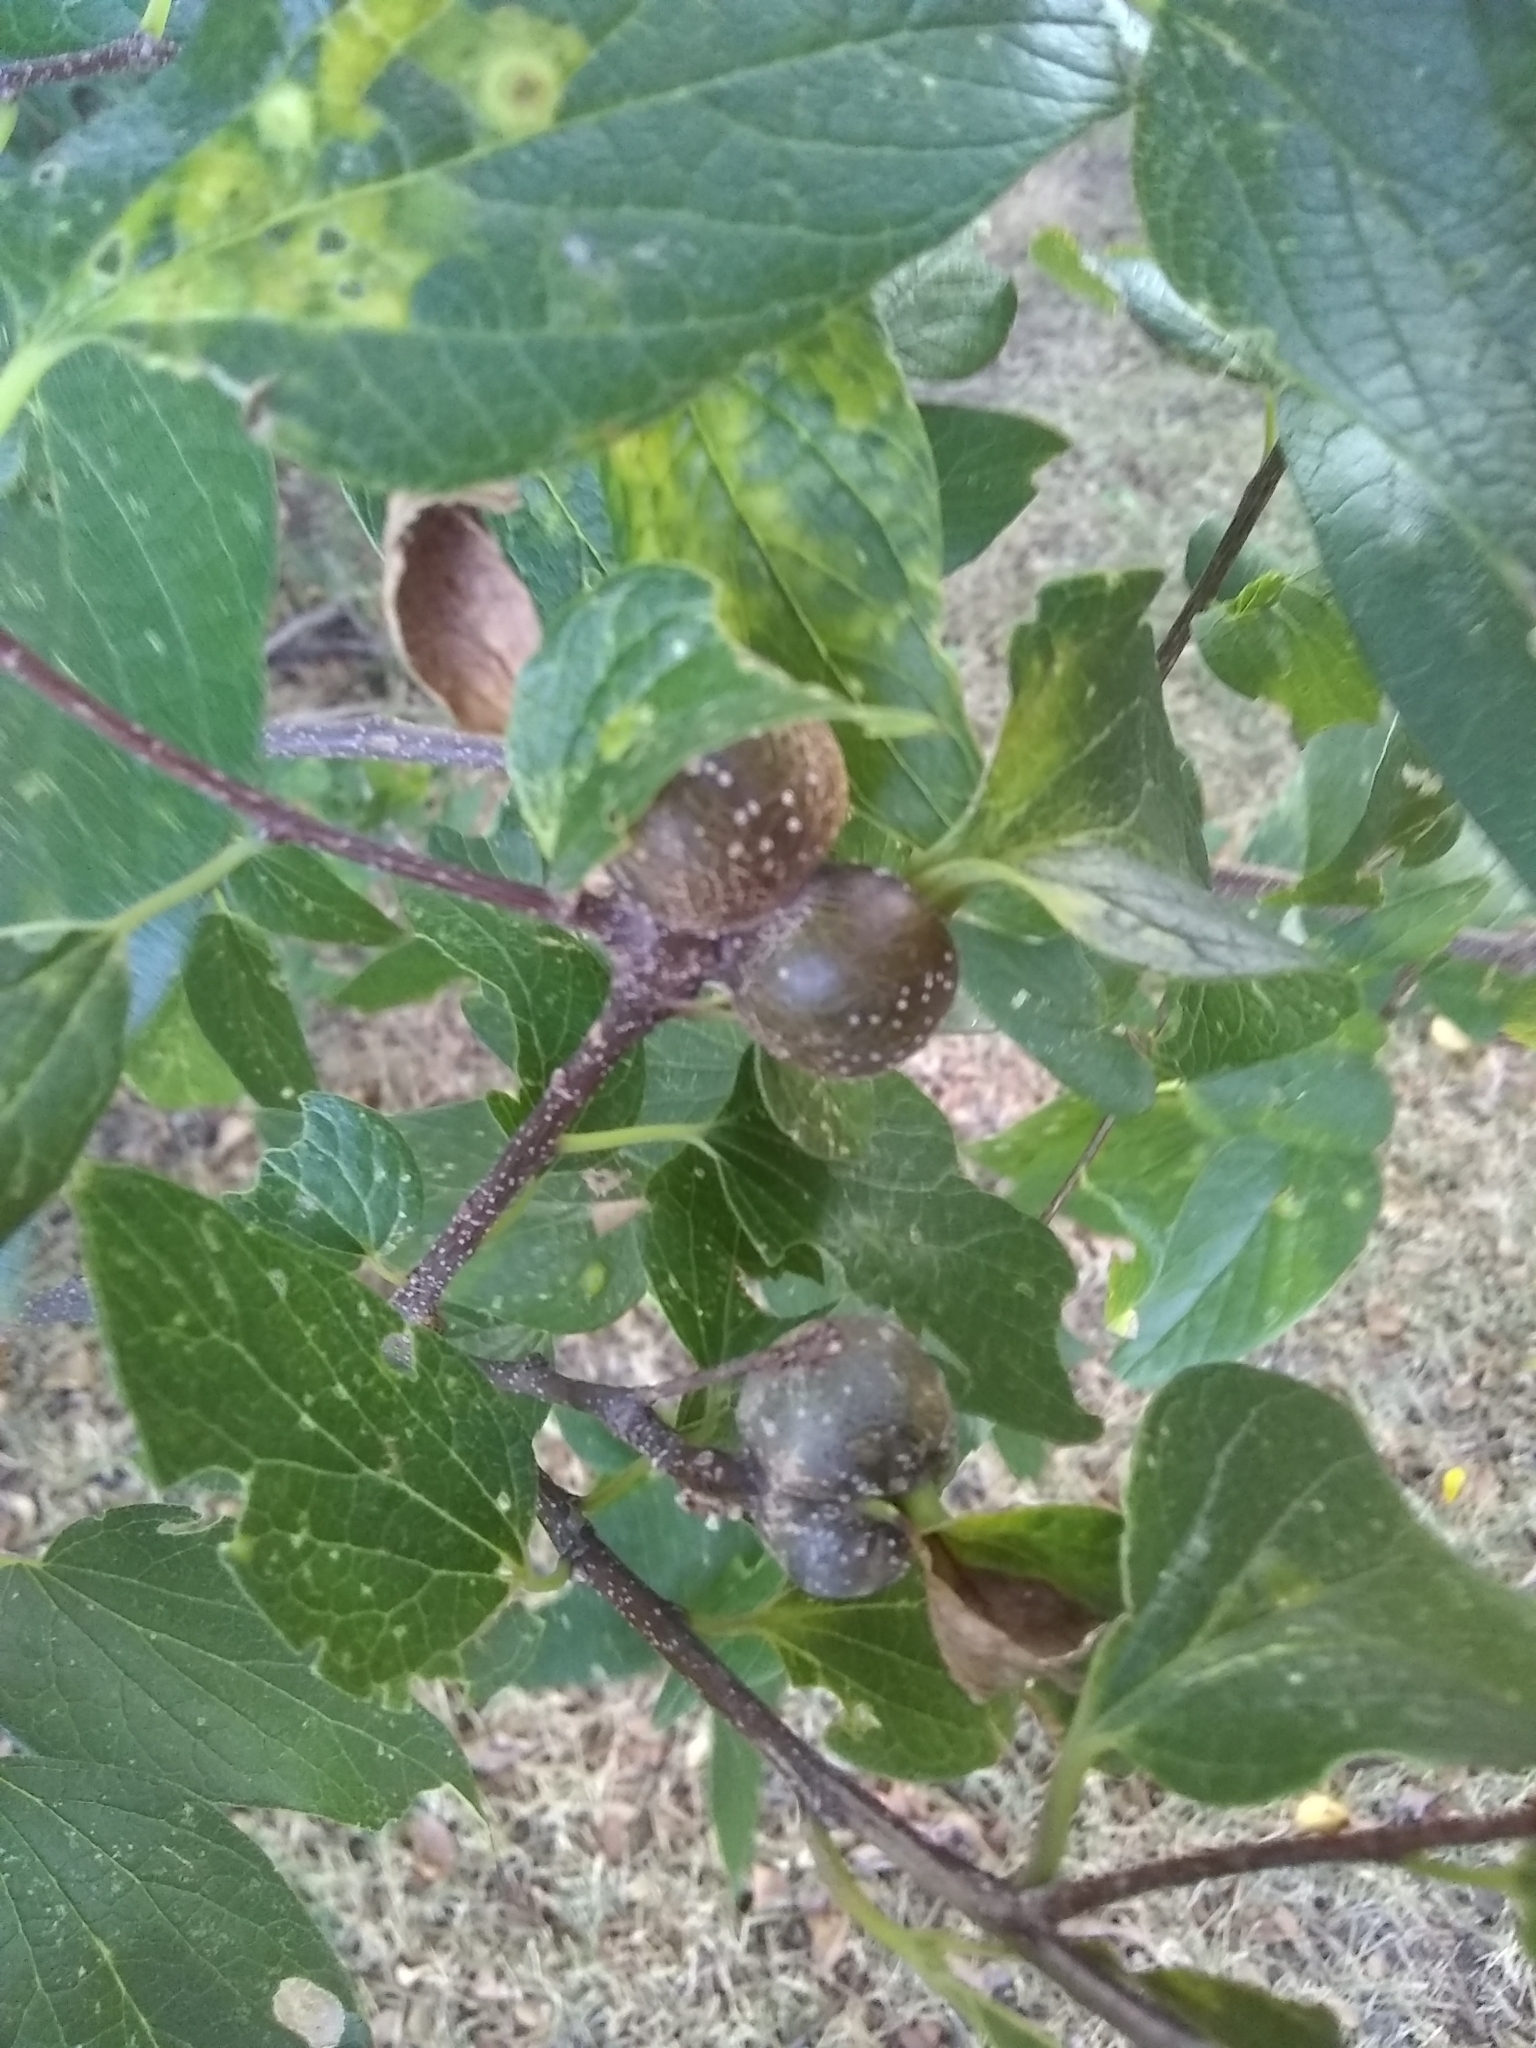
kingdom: Animalia
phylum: Arthropoda
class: Insecta
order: Hemiptera
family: Aphalaridae
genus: Pachypsylla
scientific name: Pachypsylla venusta
